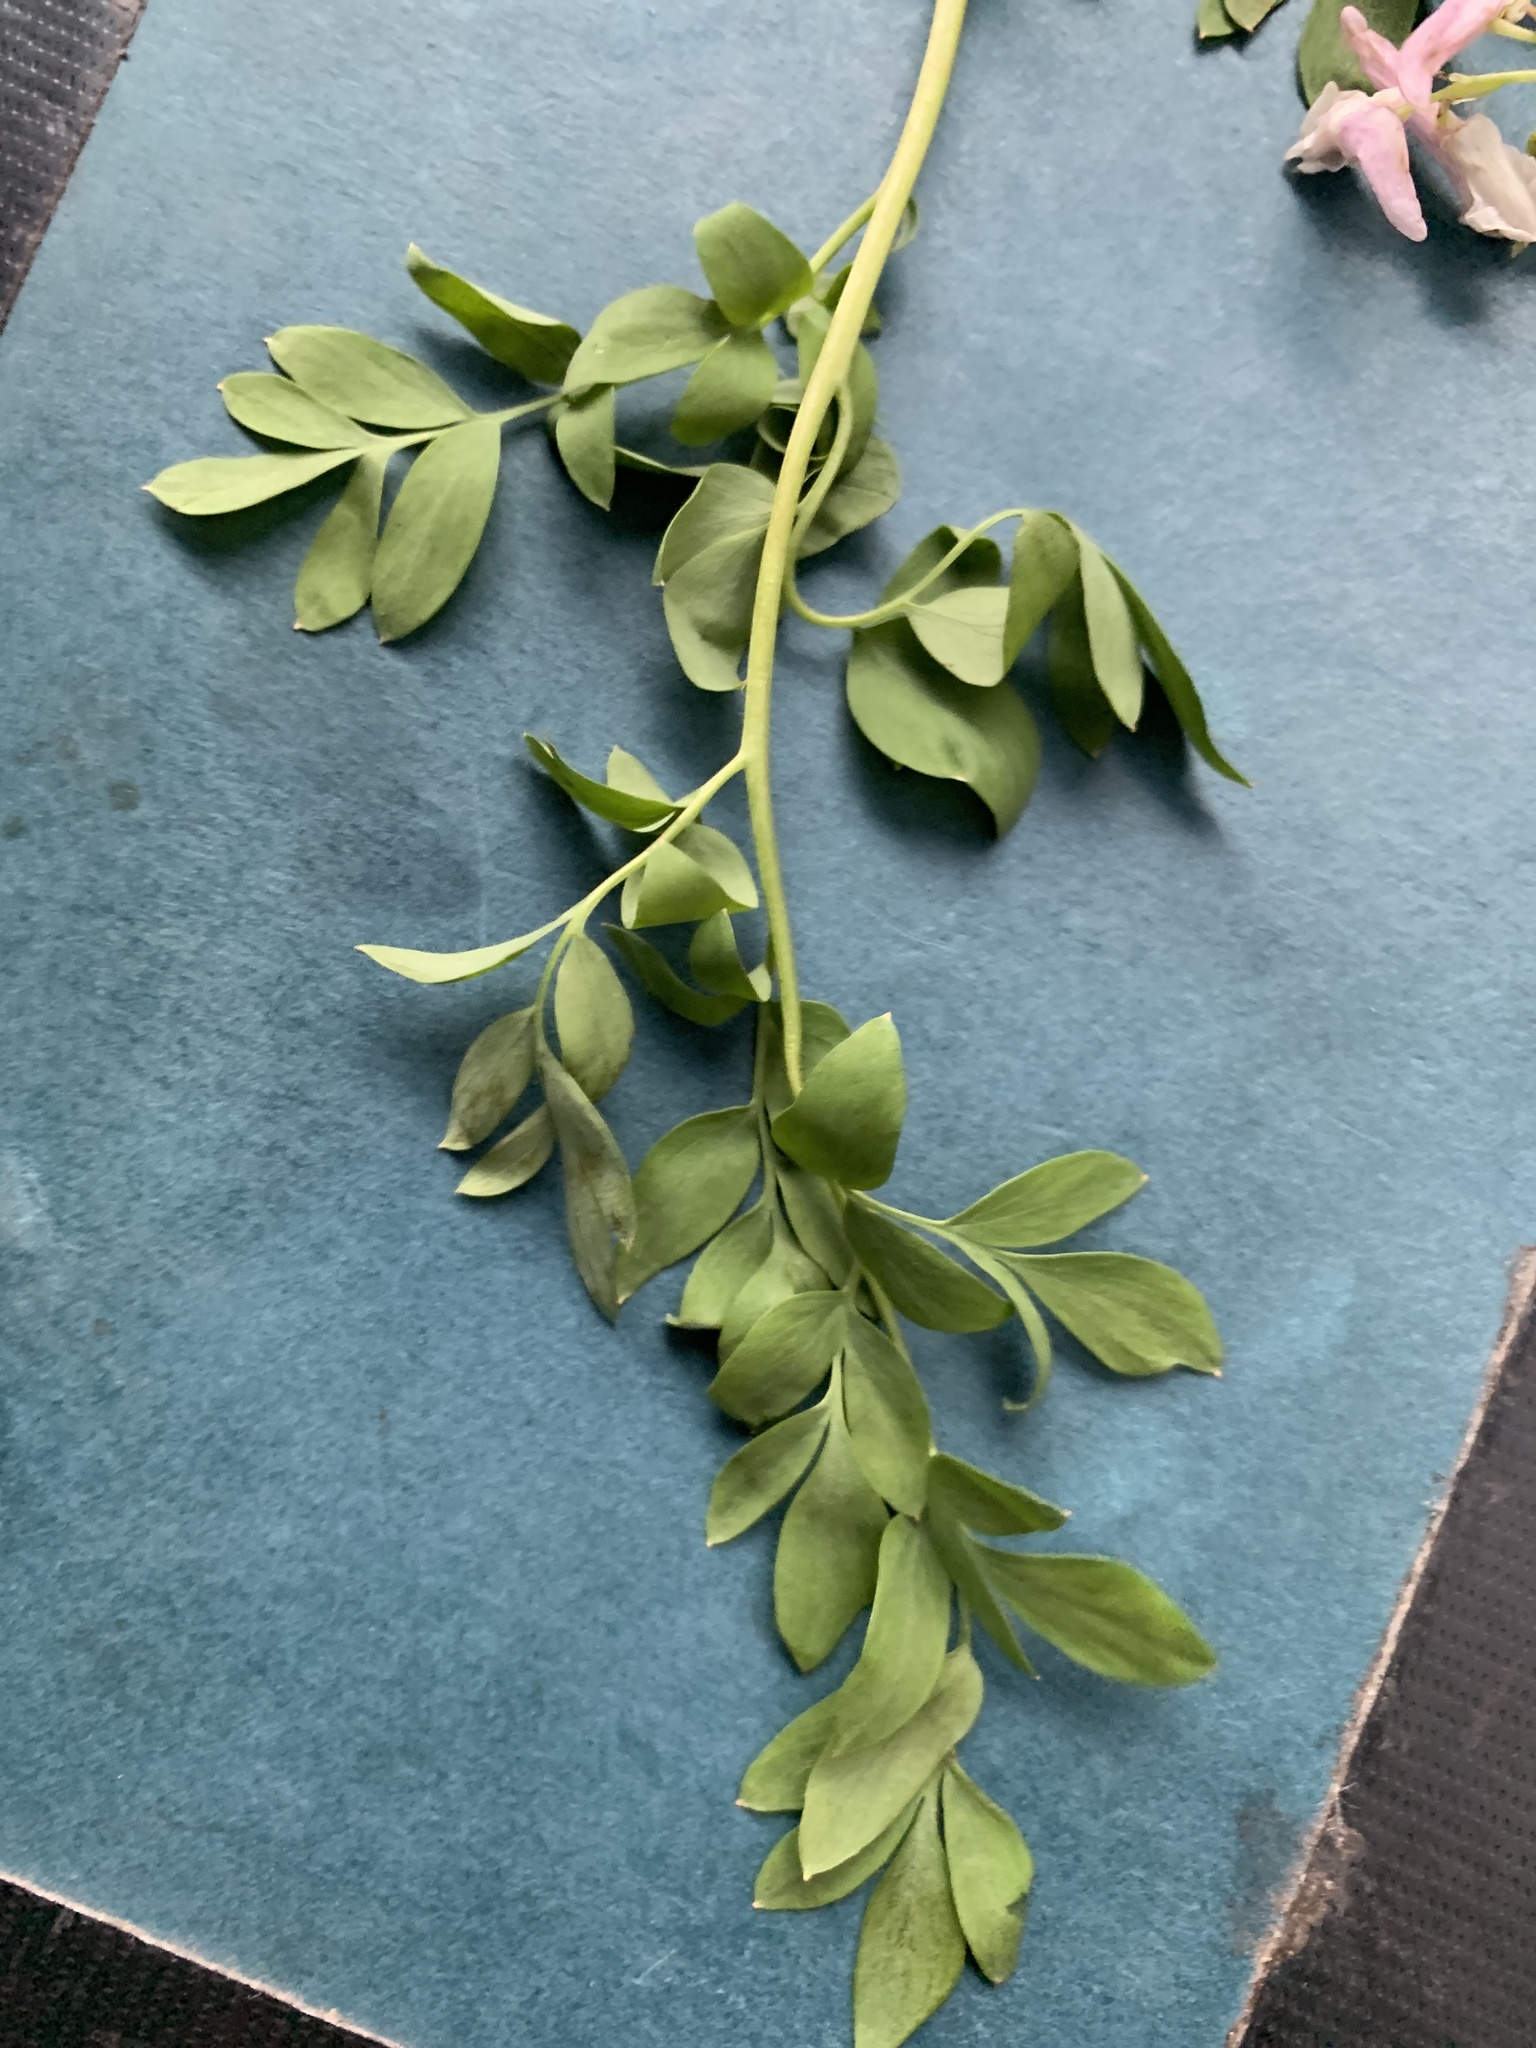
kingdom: Plantae
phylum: Tracheophyta
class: Magnoliopsida
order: Ranunculales
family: Papaveraceae
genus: Corydalis
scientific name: Corydalis caseana
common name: Fitweed
